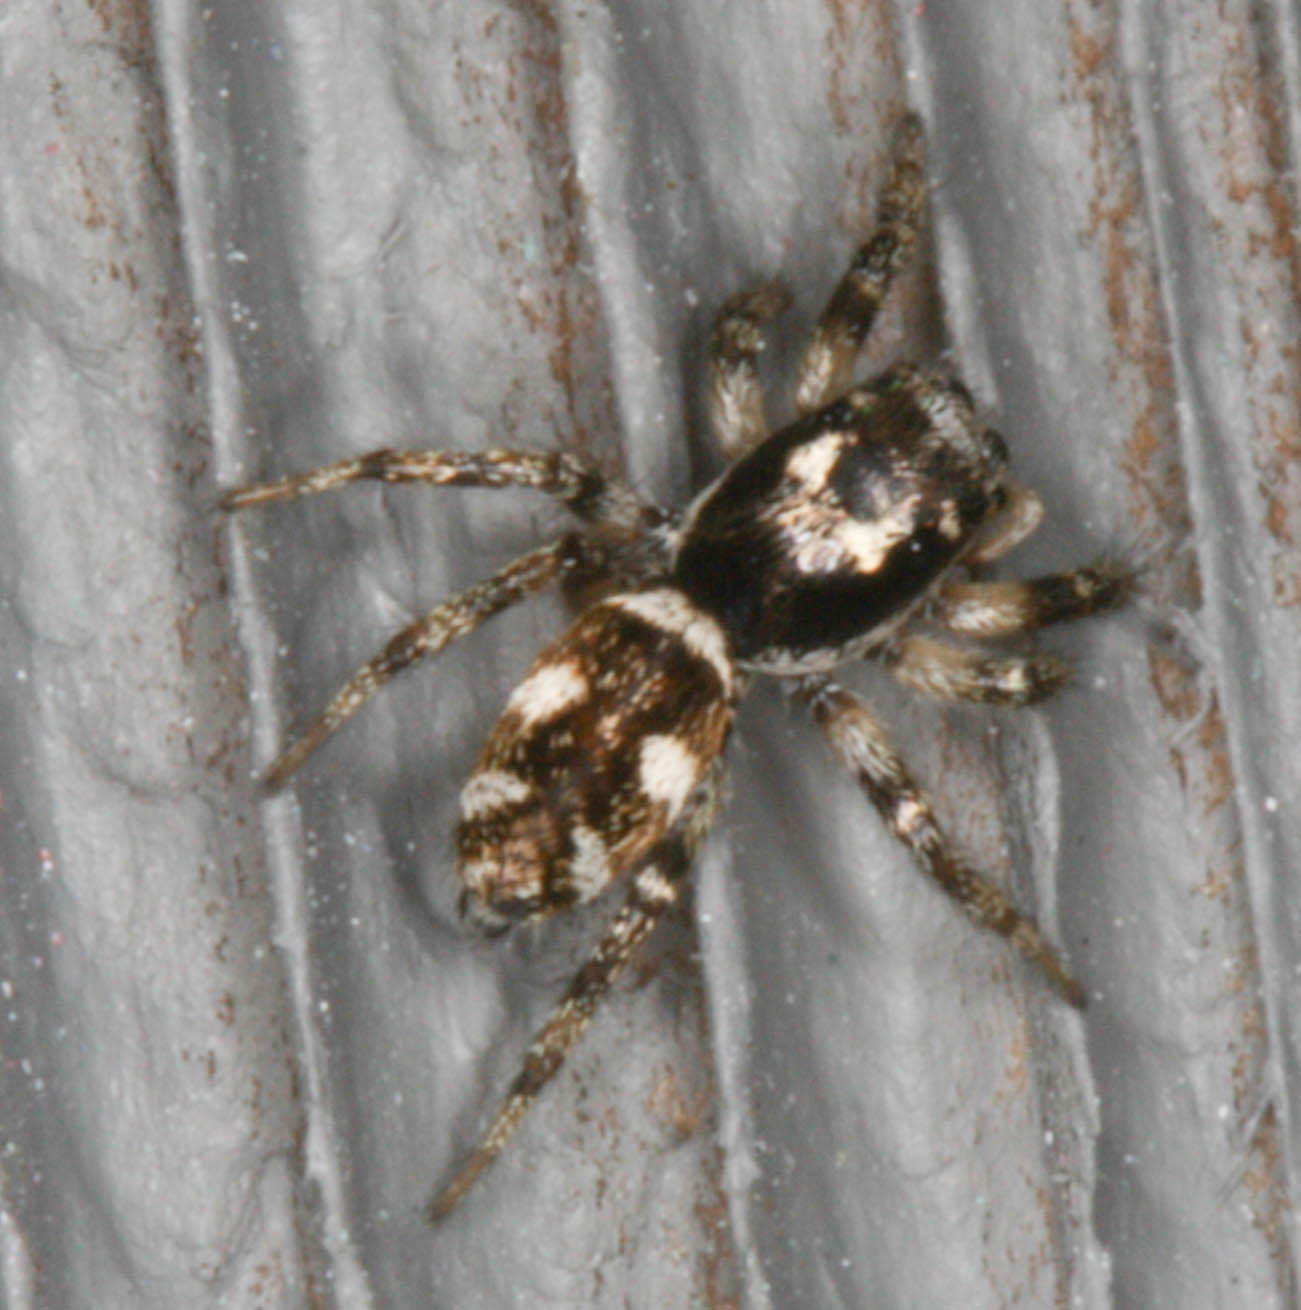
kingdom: Animalia
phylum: Arthropoda
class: Arachnida
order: Araneae
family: Salticidae
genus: Salticus
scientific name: Salticus scenicus
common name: Zebra jumper
